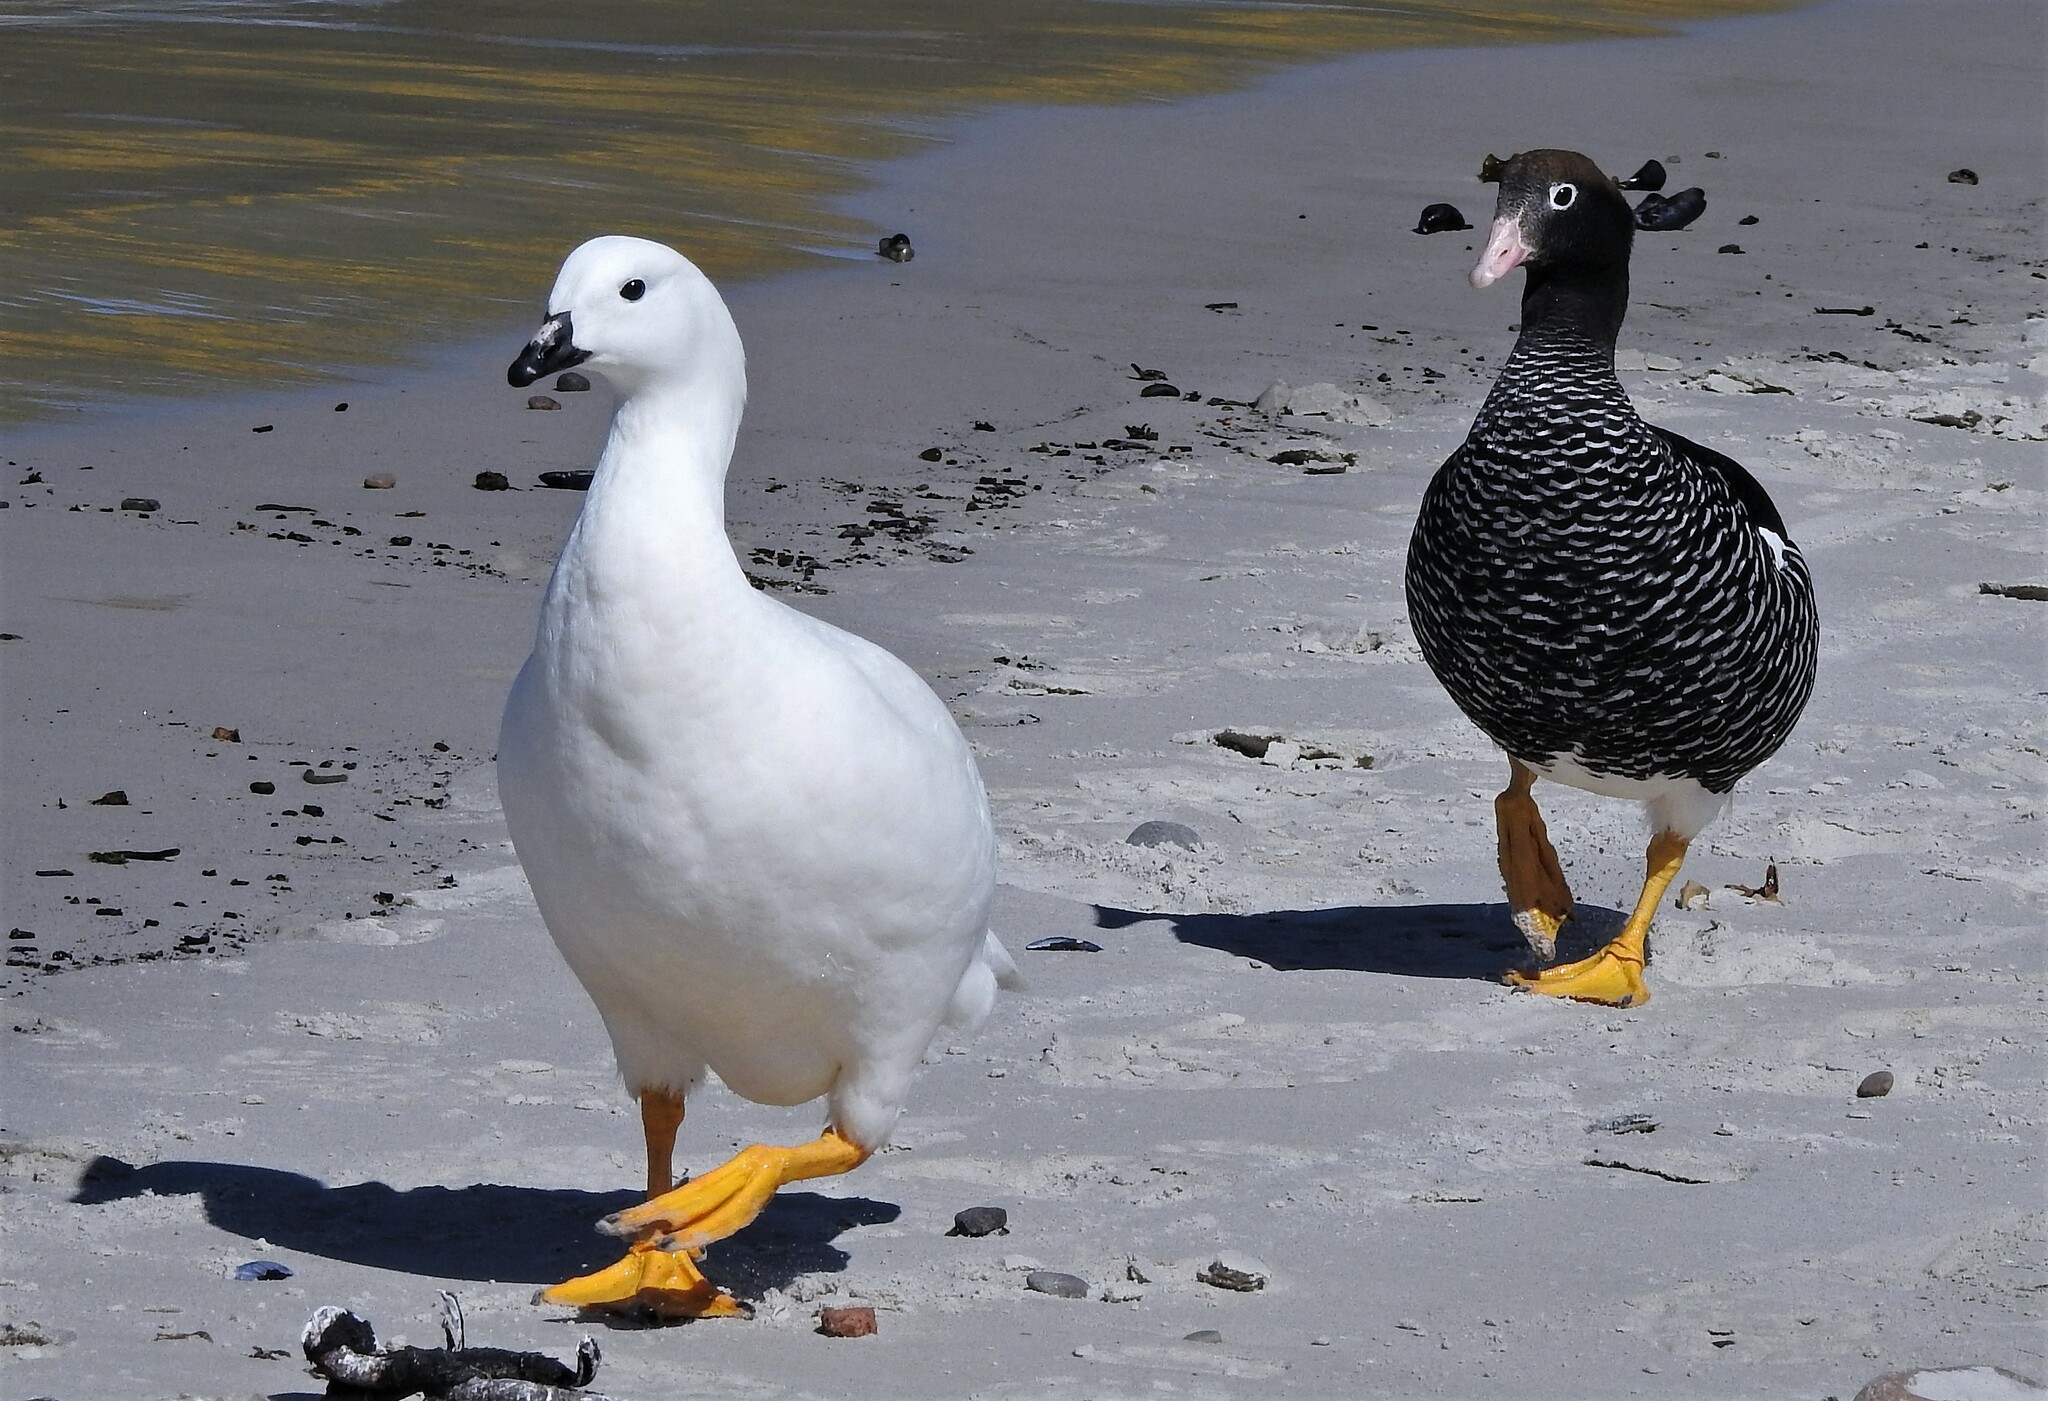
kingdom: Animalia
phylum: Chordata
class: Aves
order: Anseriformes
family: Anatidae
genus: Chloephaga
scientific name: Chloephaga hybrida
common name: Kelp goose
